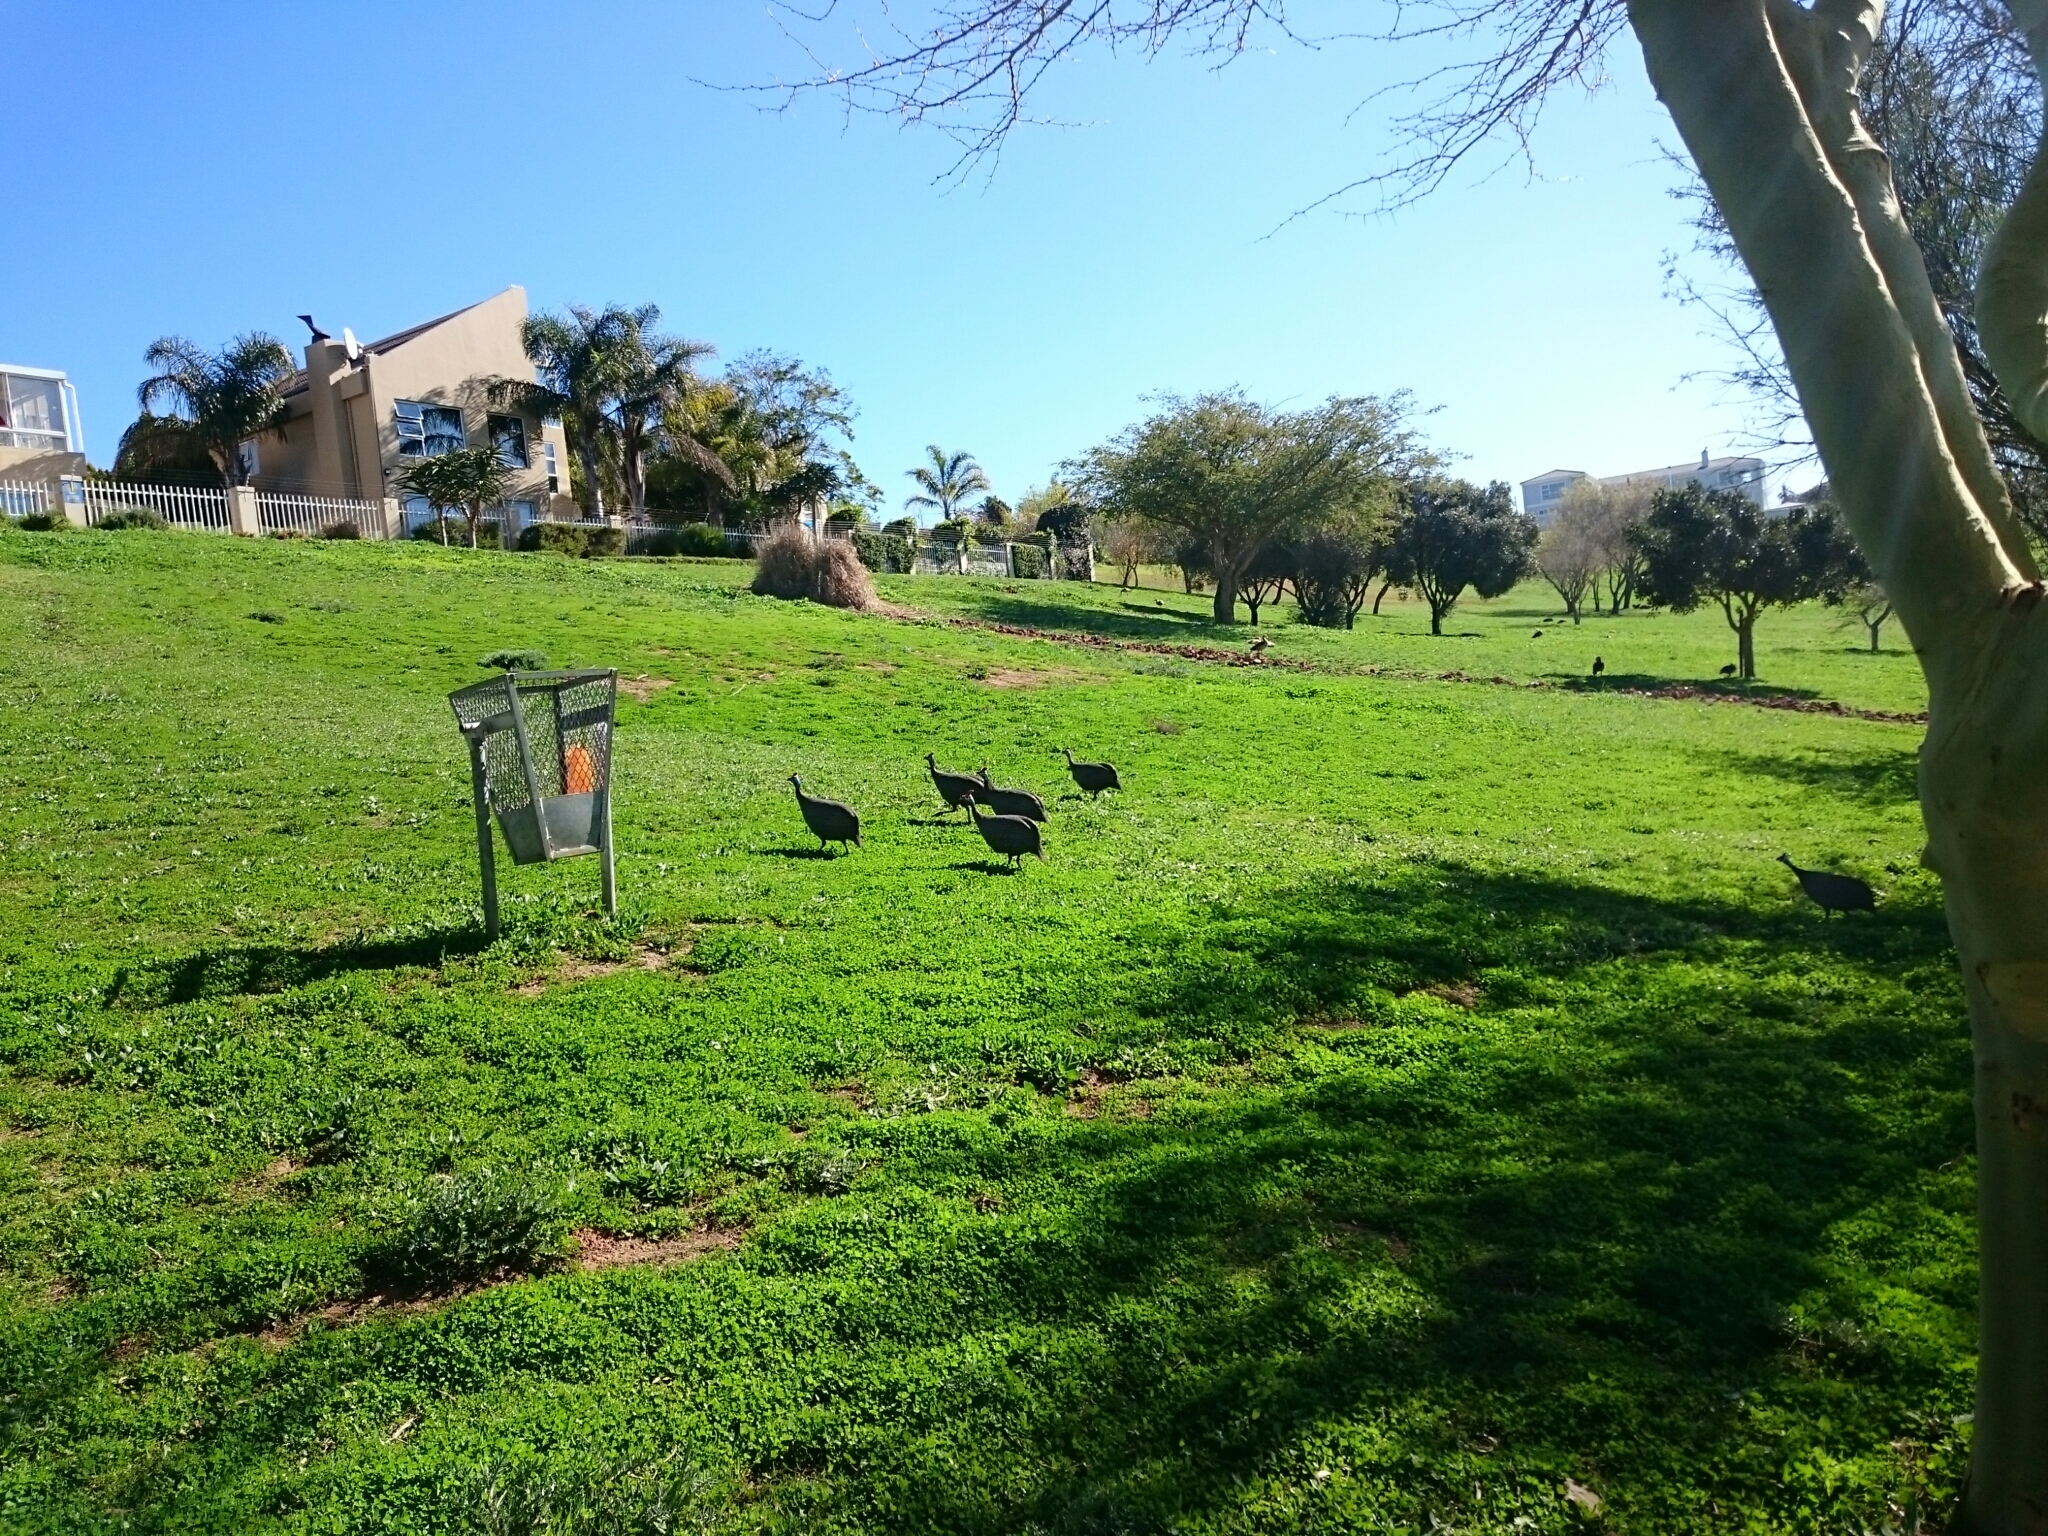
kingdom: Animalia
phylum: Chordata
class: Aves
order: Galliformes
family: Numididae
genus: Numida
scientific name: Numida meleagris
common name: Helmeted guineafowl
